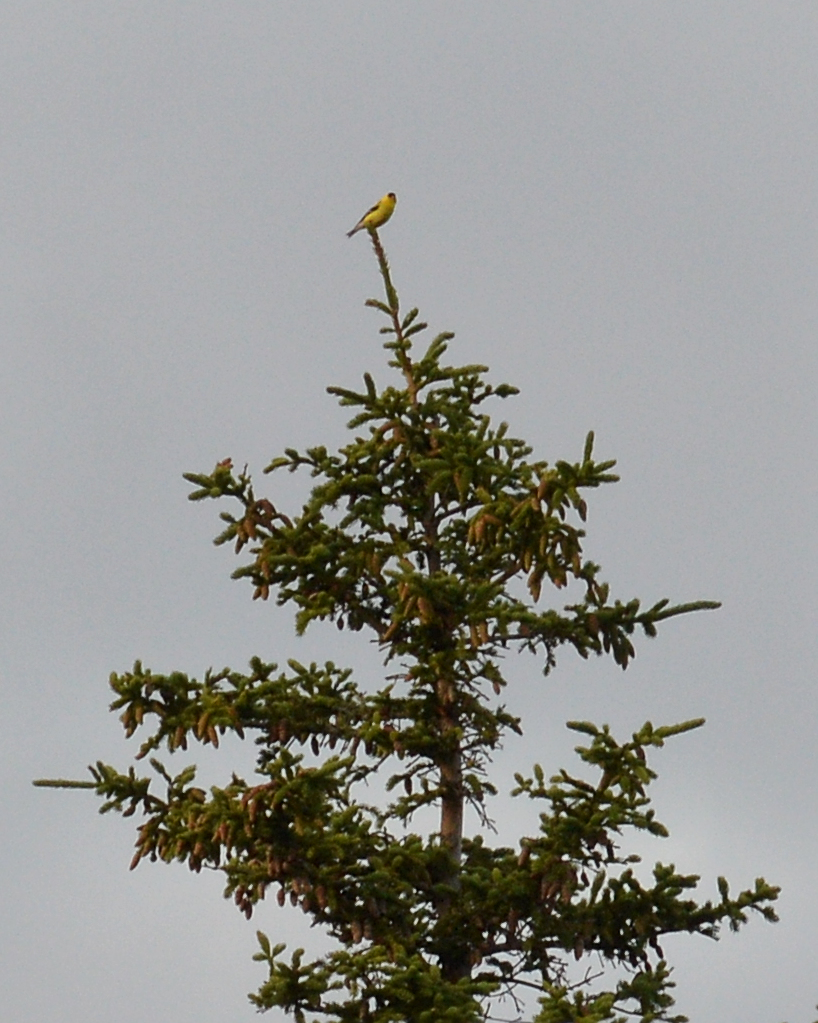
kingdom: Animalia
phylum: Chordata
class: Aves
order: Passeriformes
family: Fringillidae
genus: Spinus
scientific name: Spinus tristis
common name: American goldfinch
